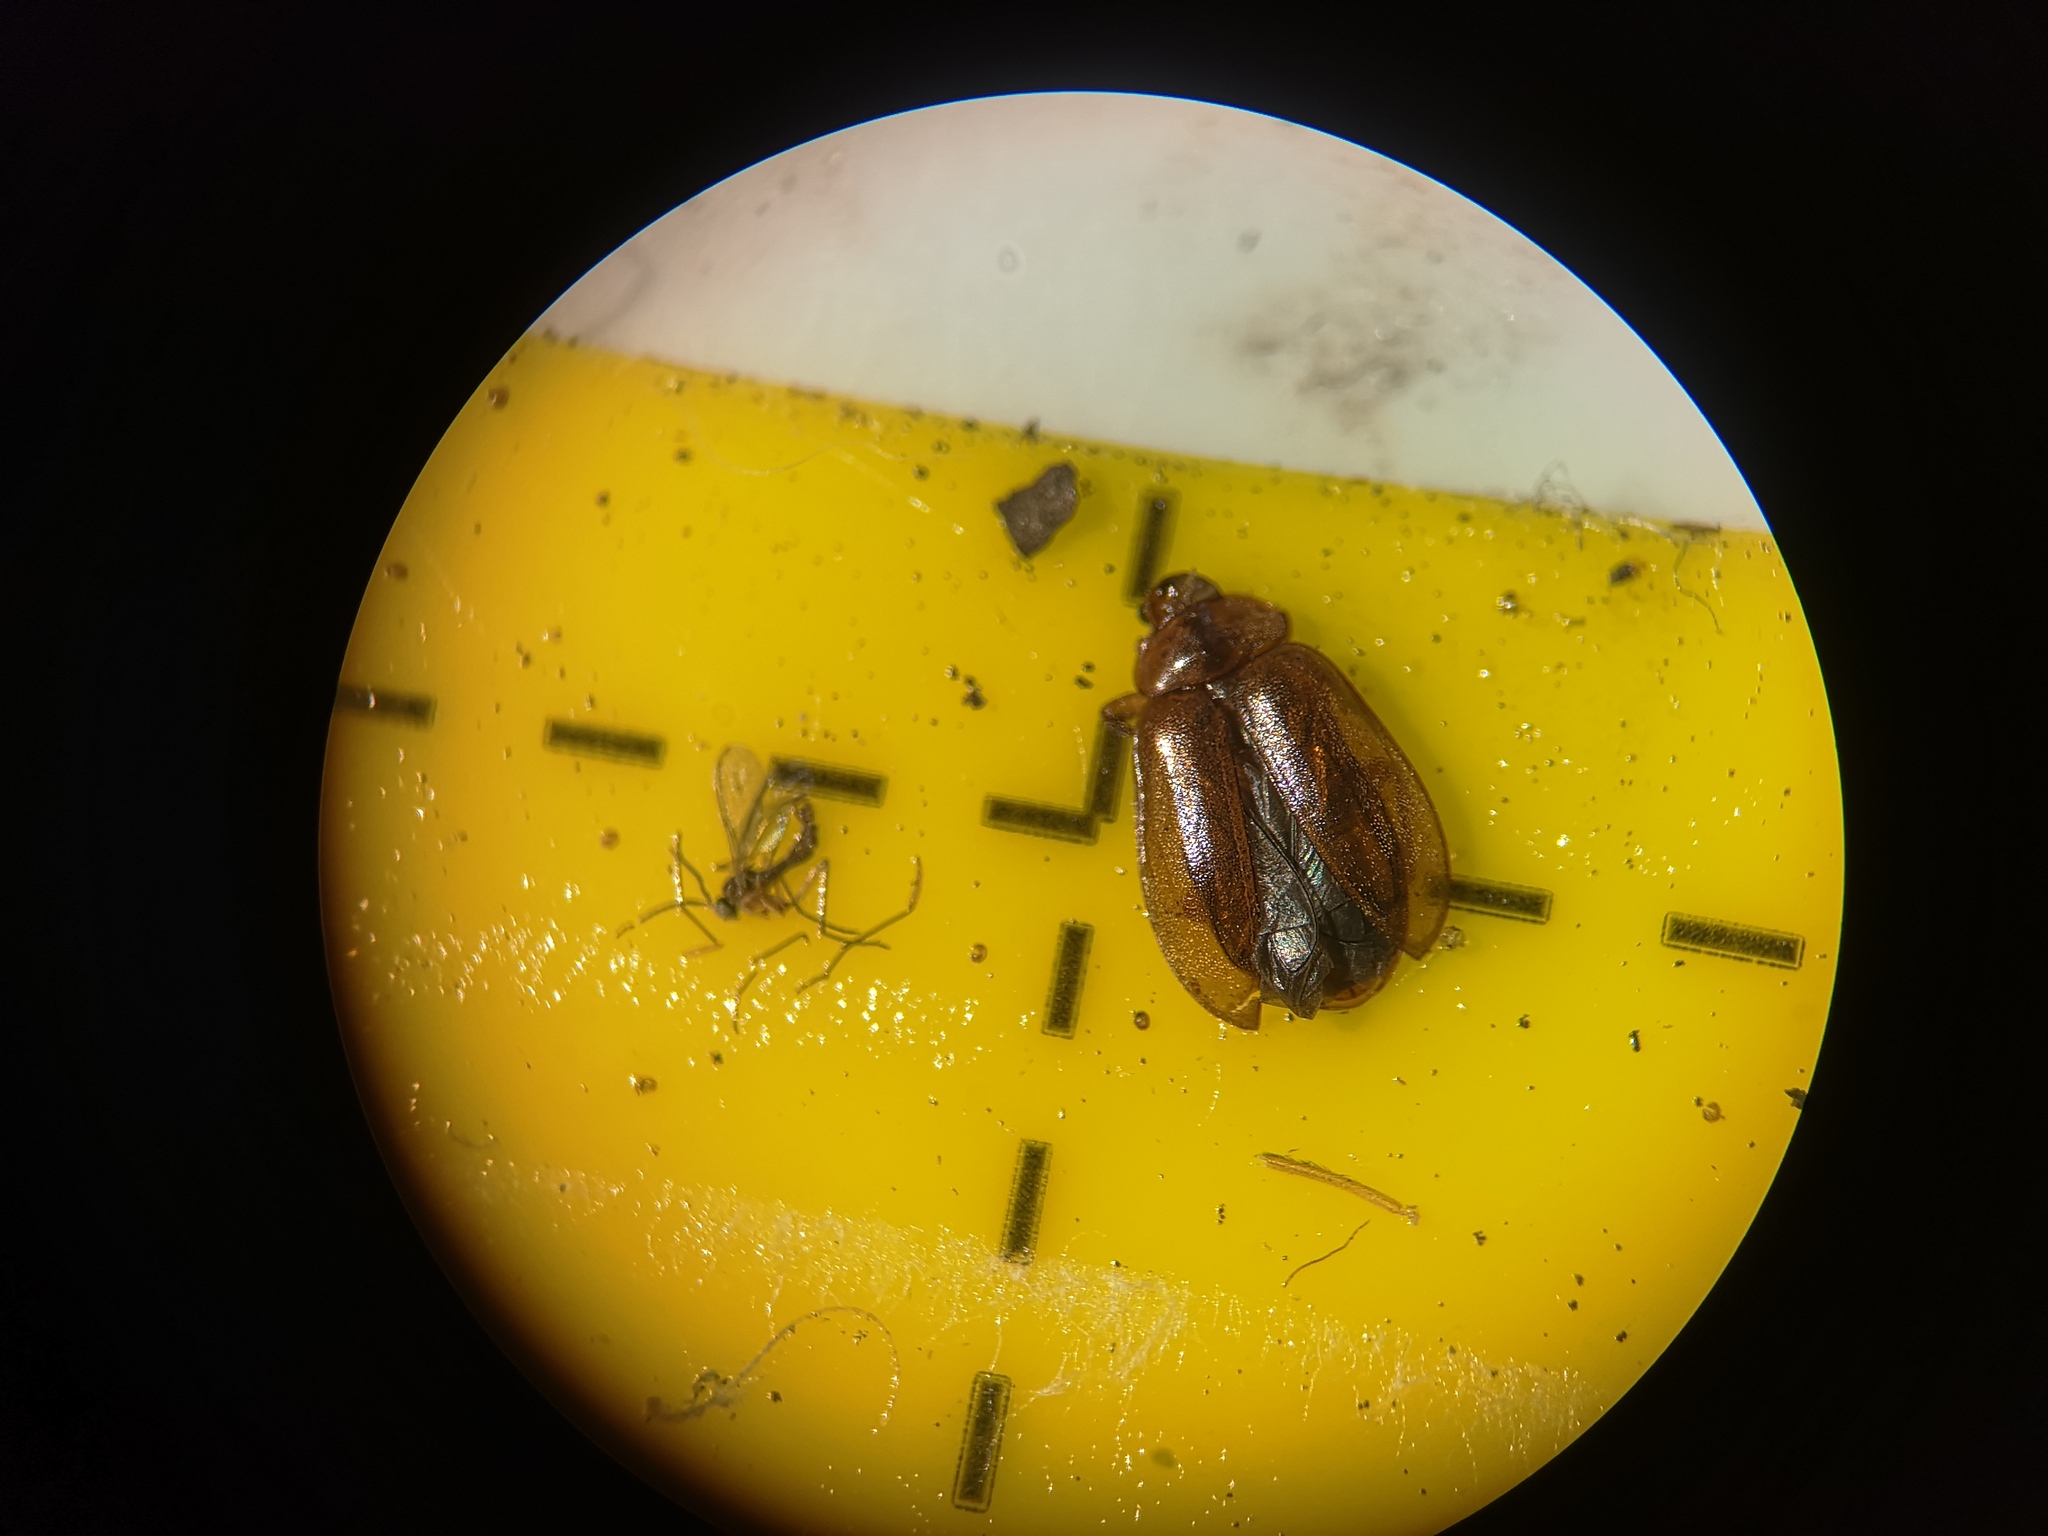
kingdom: Animalia
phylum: Arthropoda
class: Insecta
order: Coleoptera
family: Scirtidae
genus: Microcara
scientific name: Microcara testacea
